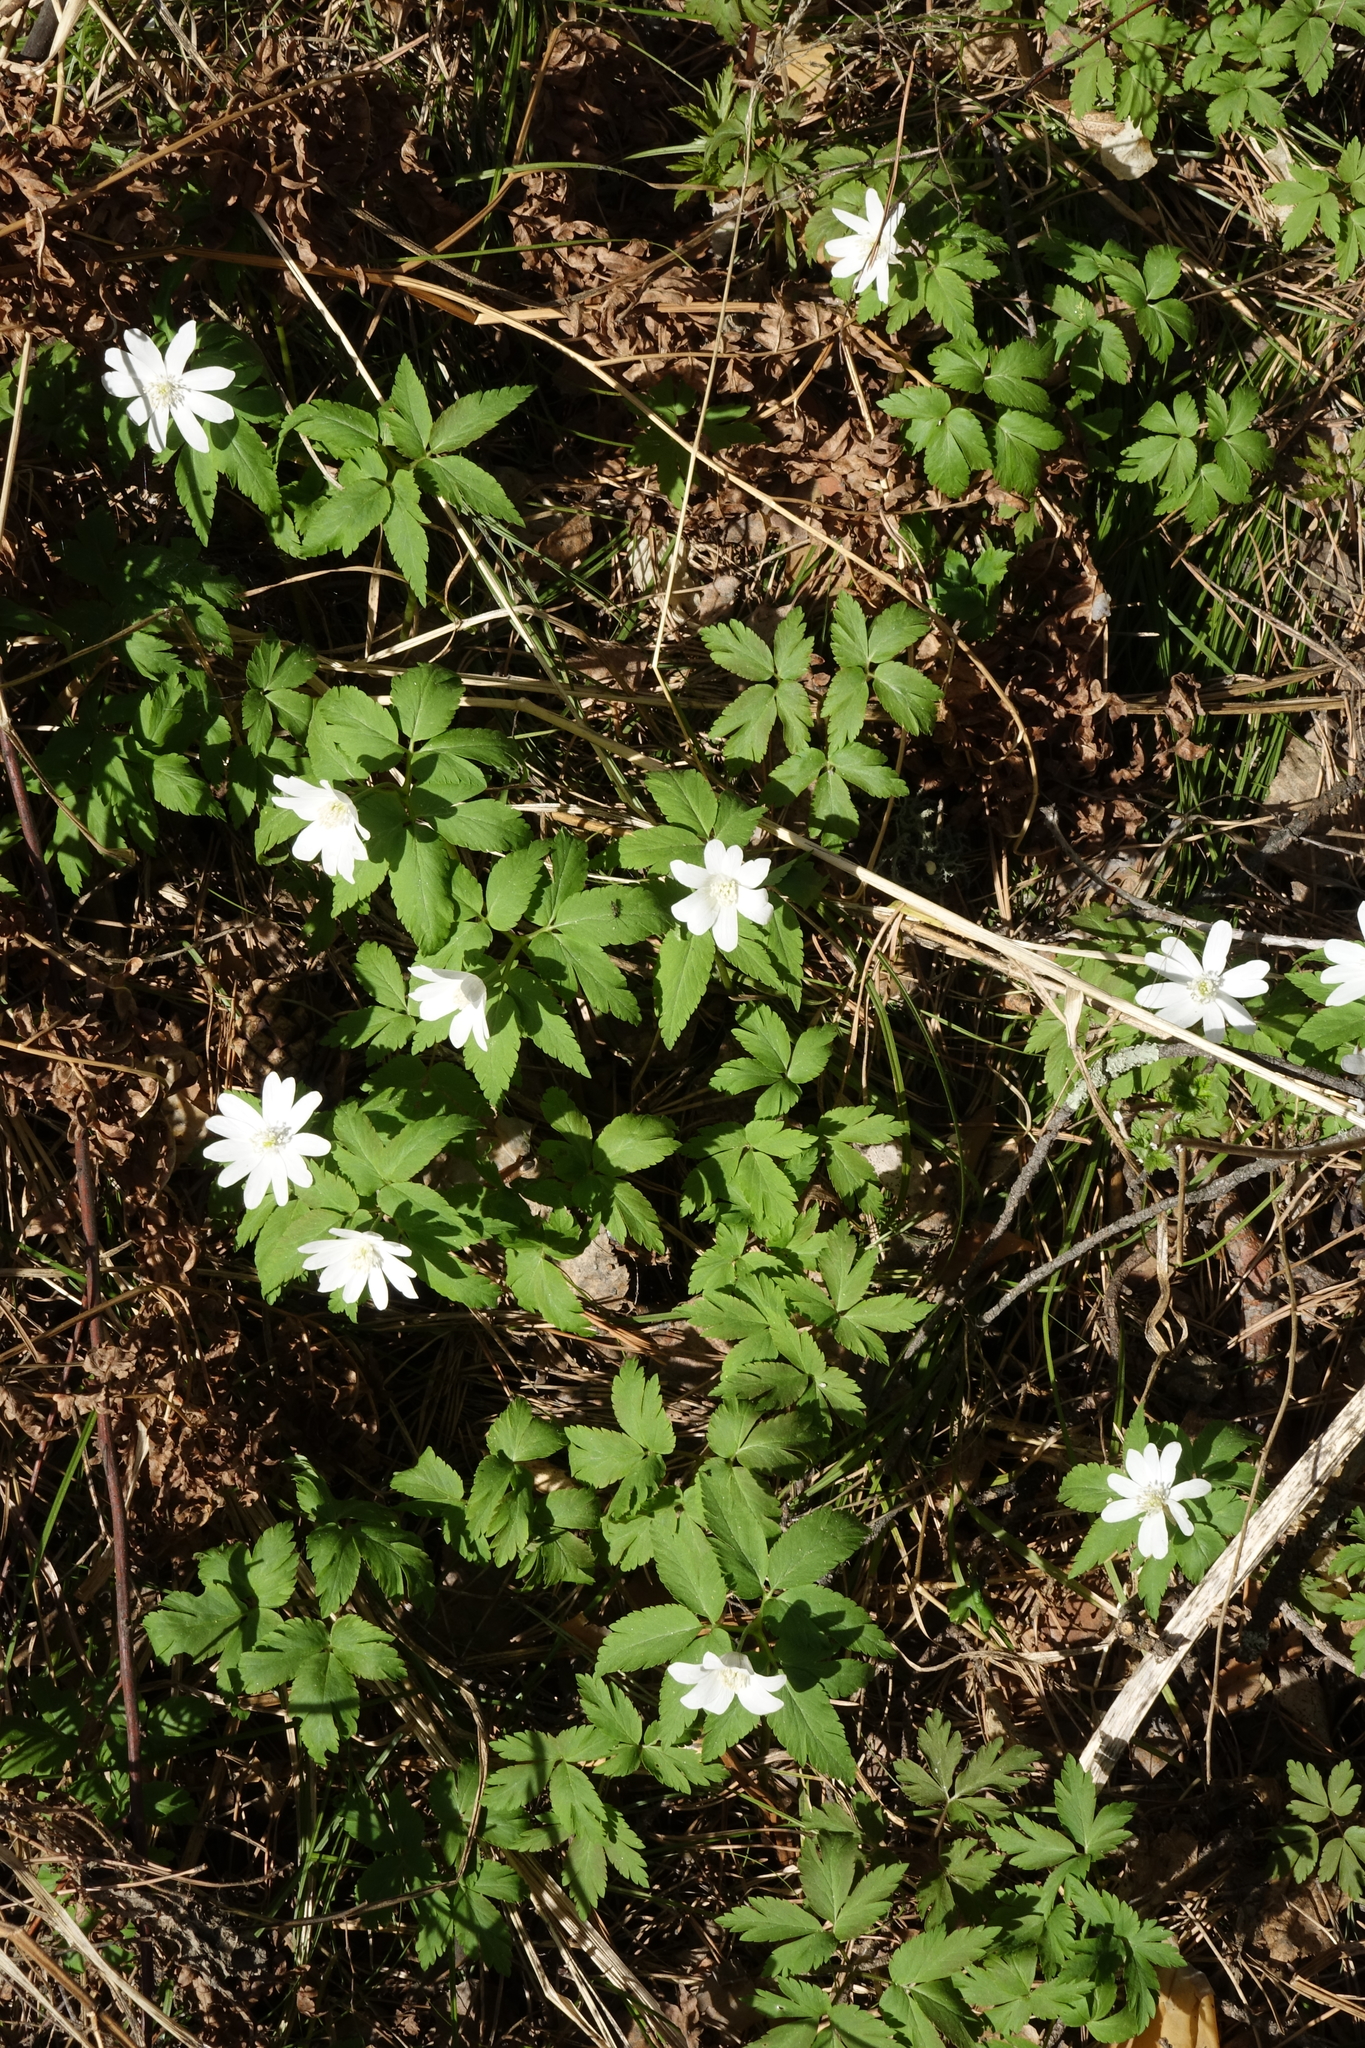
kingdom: Plantae
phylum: Tracheophyta
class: Magnoliopsida
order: Ranunculales
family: Ranunculaceae
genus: Anemone
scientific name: Anemone altaica
